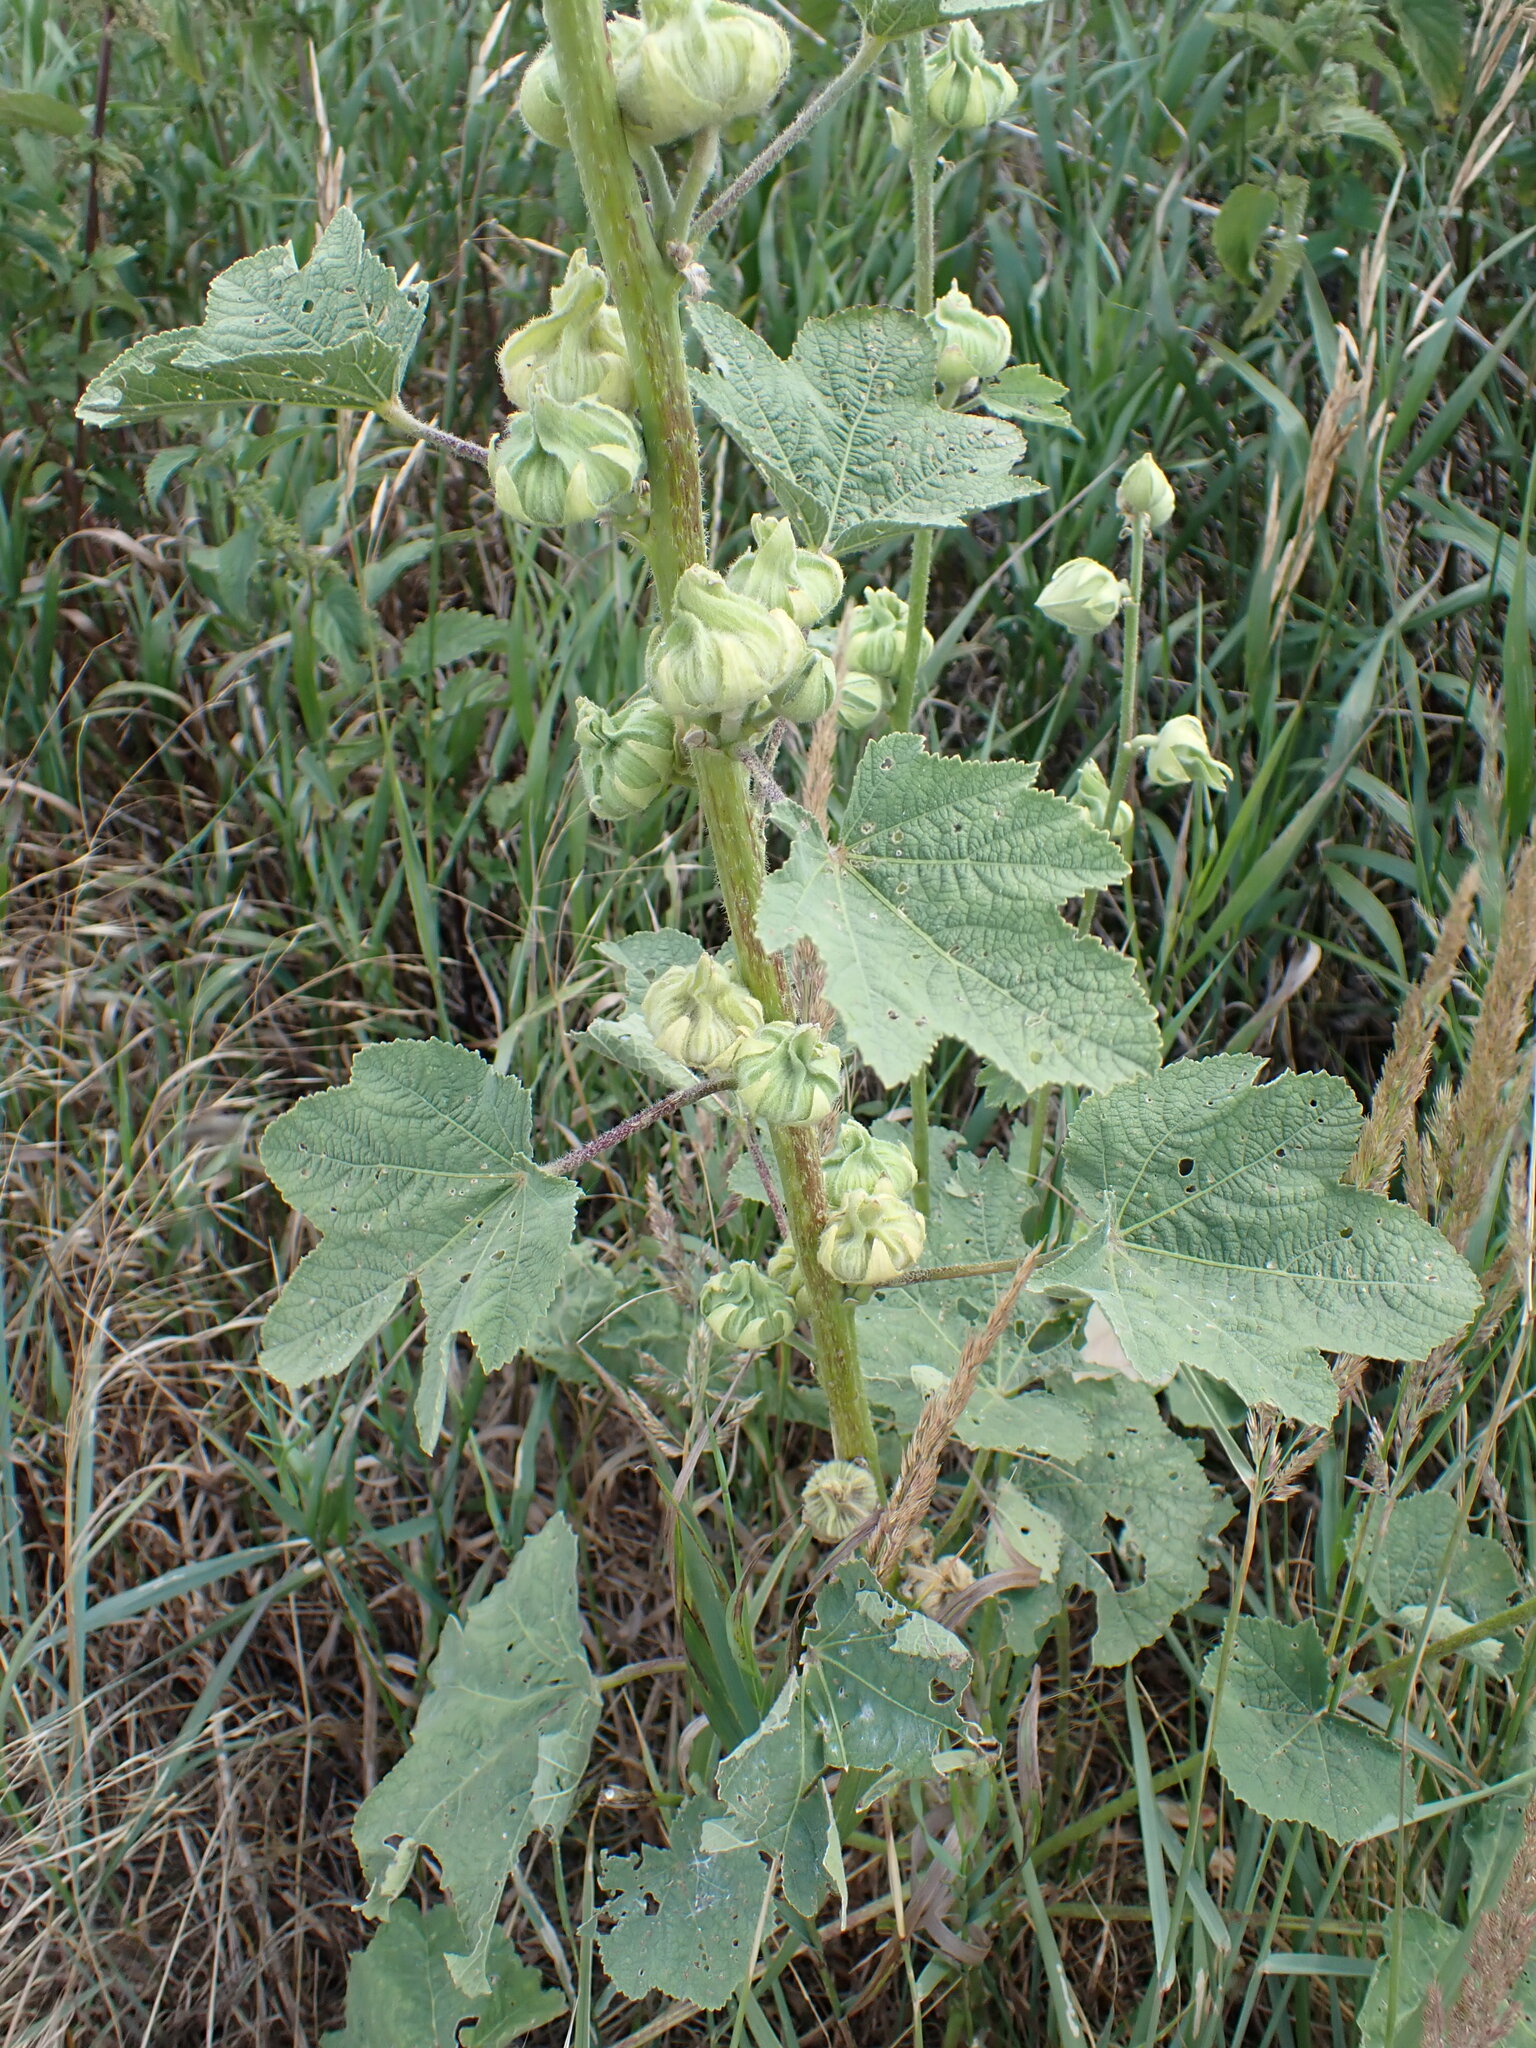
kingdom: Plantae
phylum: Tracheophyta
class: Magnoliopsida
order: Malvales
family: Malvaceae
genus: Alcea
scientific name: Alcea rosea
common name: Hollyhock
